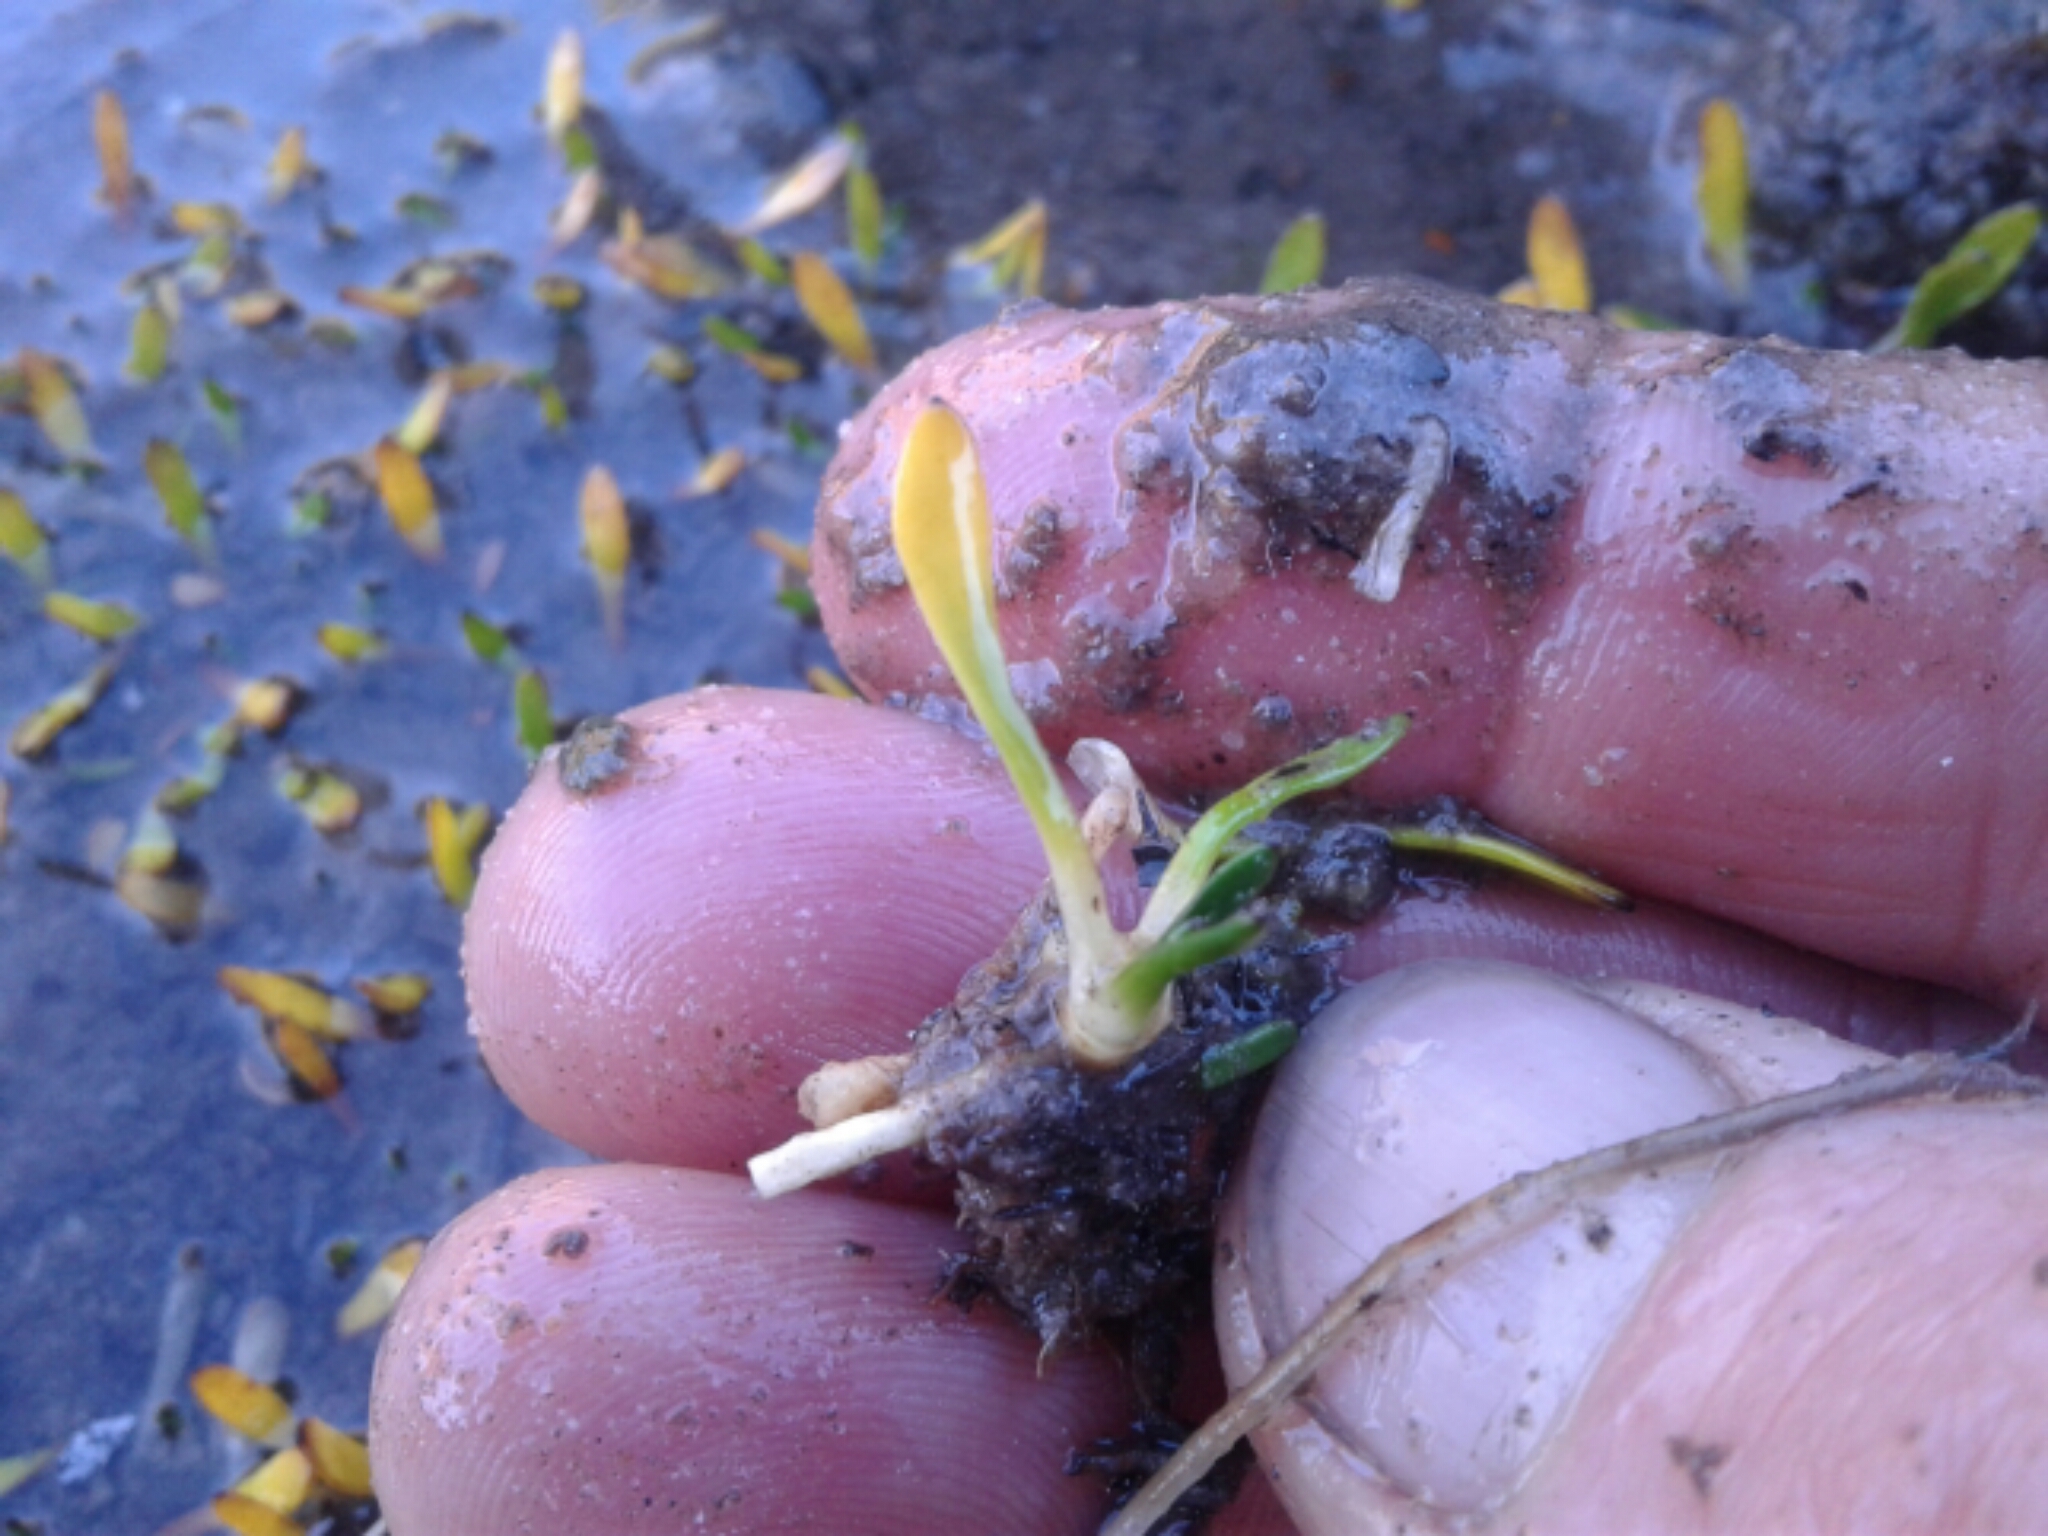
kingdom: Plantae
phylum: Tracheophyta
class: Magnoliopsida
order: Asterales
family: Menyanthaceae
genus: Liparophyllum
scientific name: Liparophyllum gunnii
